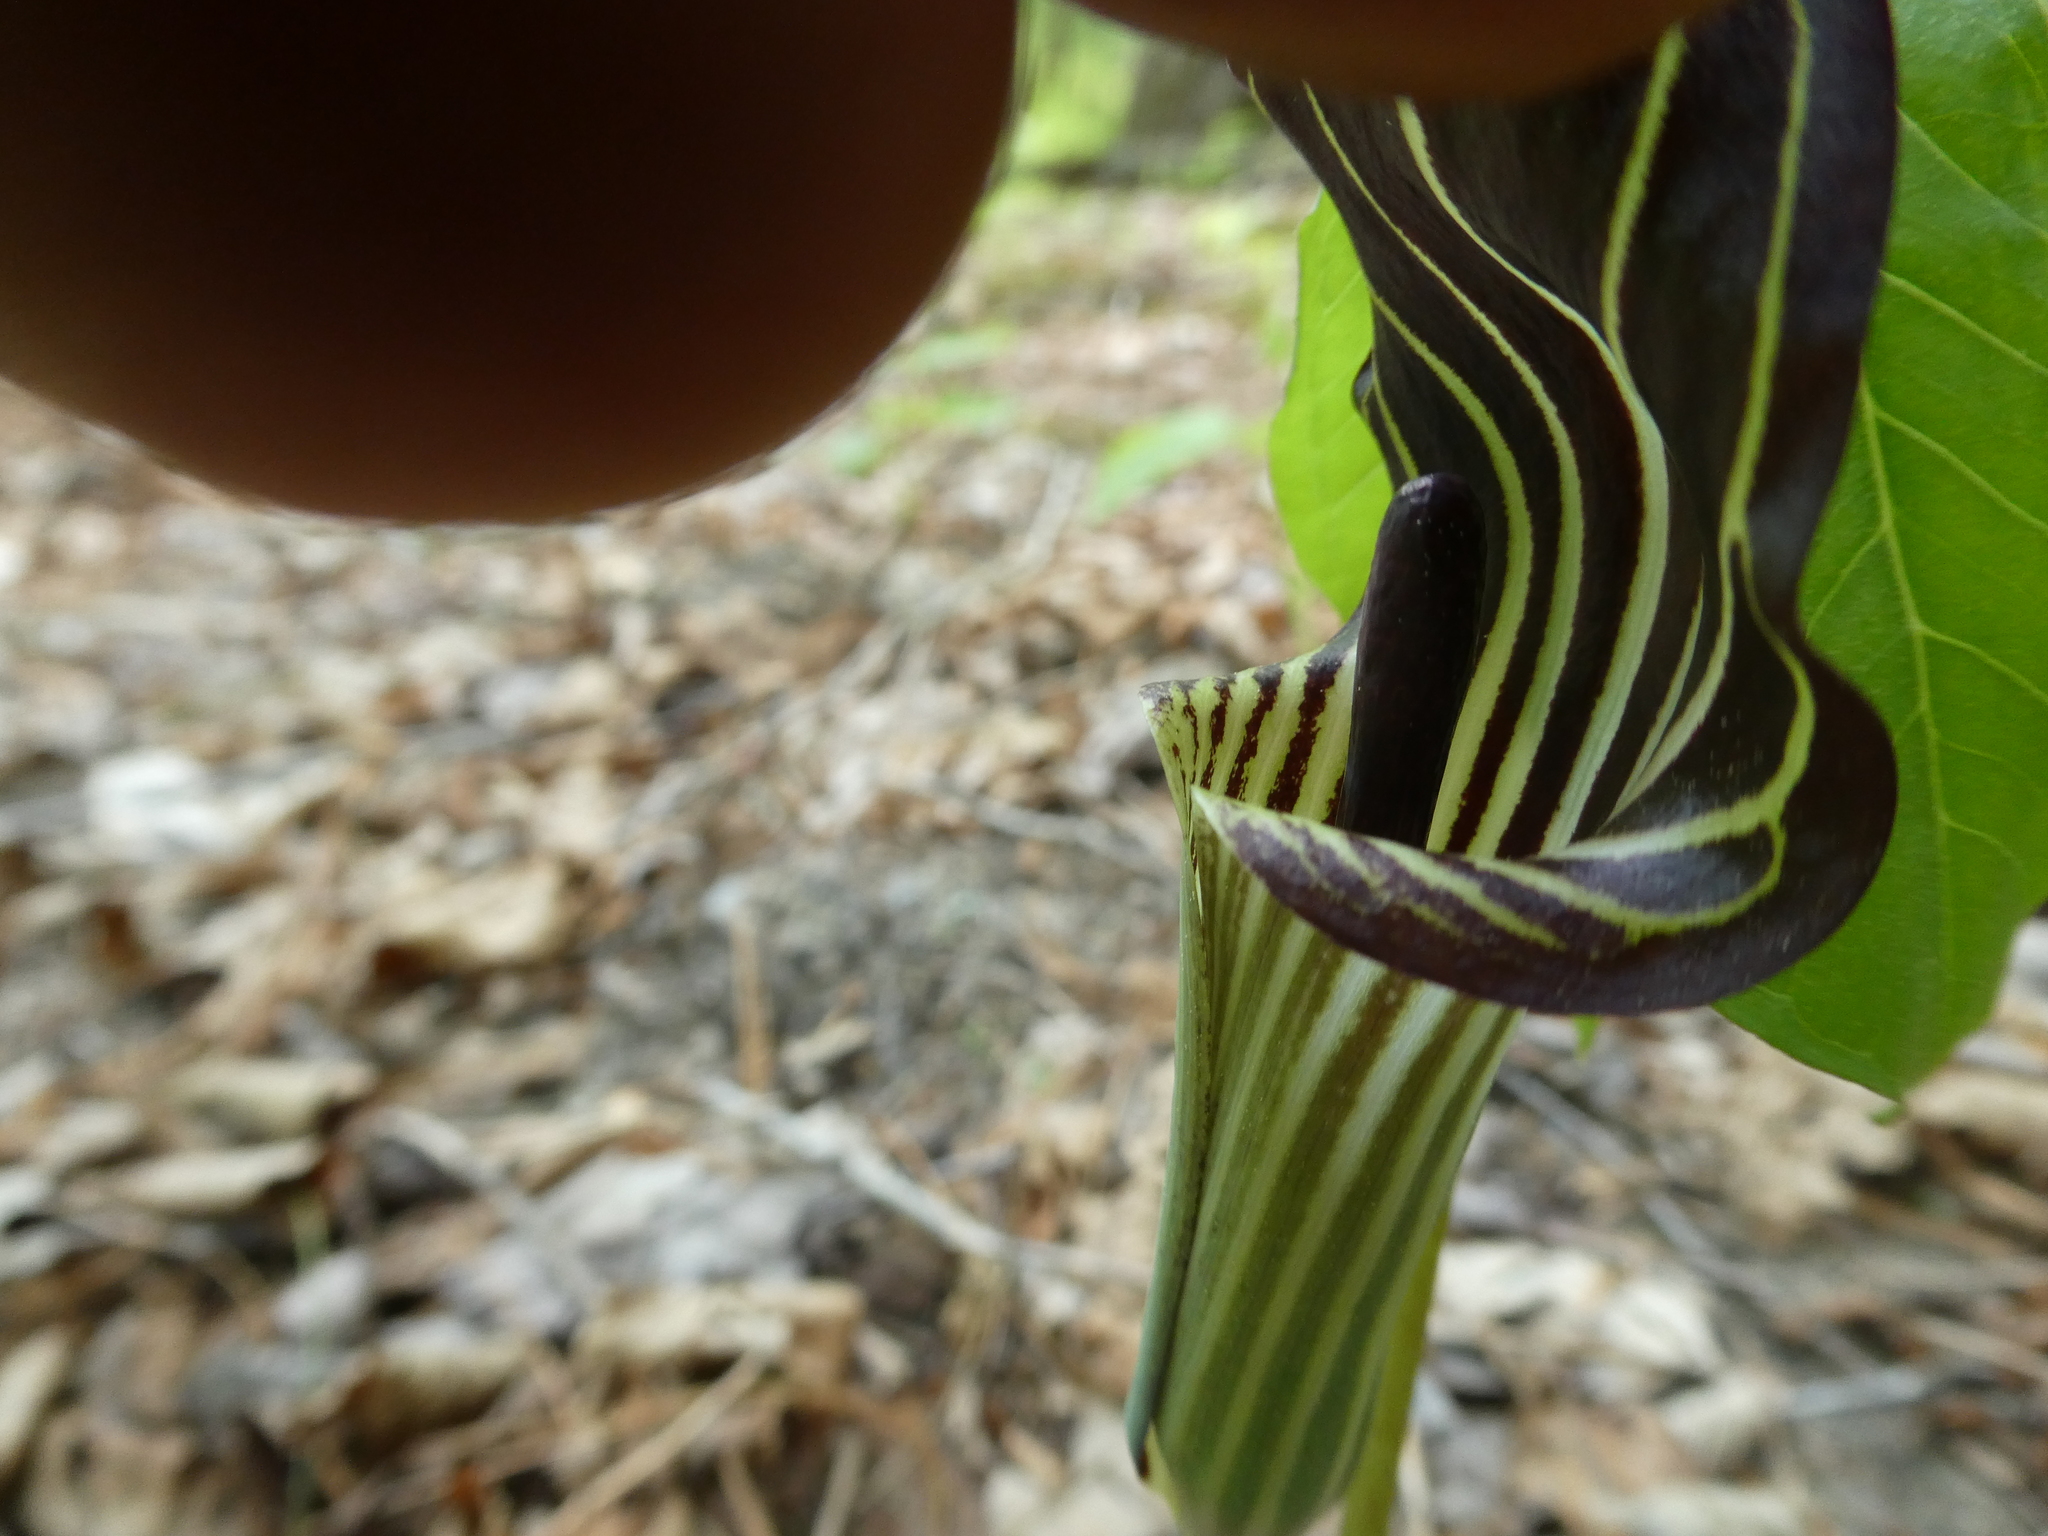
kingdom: Plantae
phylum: Tracheophyta
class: Liliopsida
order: Alismatales
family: Araceae
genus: Arisaema
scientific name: Arisaema triphyllum
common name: Jack-in-the-pulpit
